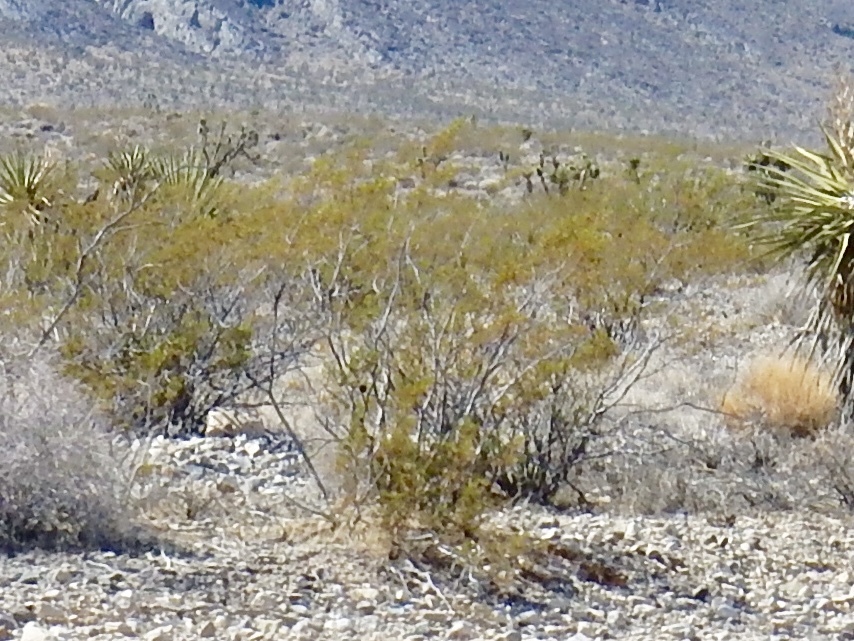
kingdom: Plantae
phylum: Tracheophyta
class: Magnoliopsida
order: Zygophyllales
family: Zygophyllaceae
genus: Larrea
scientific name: Larrea tridentata
